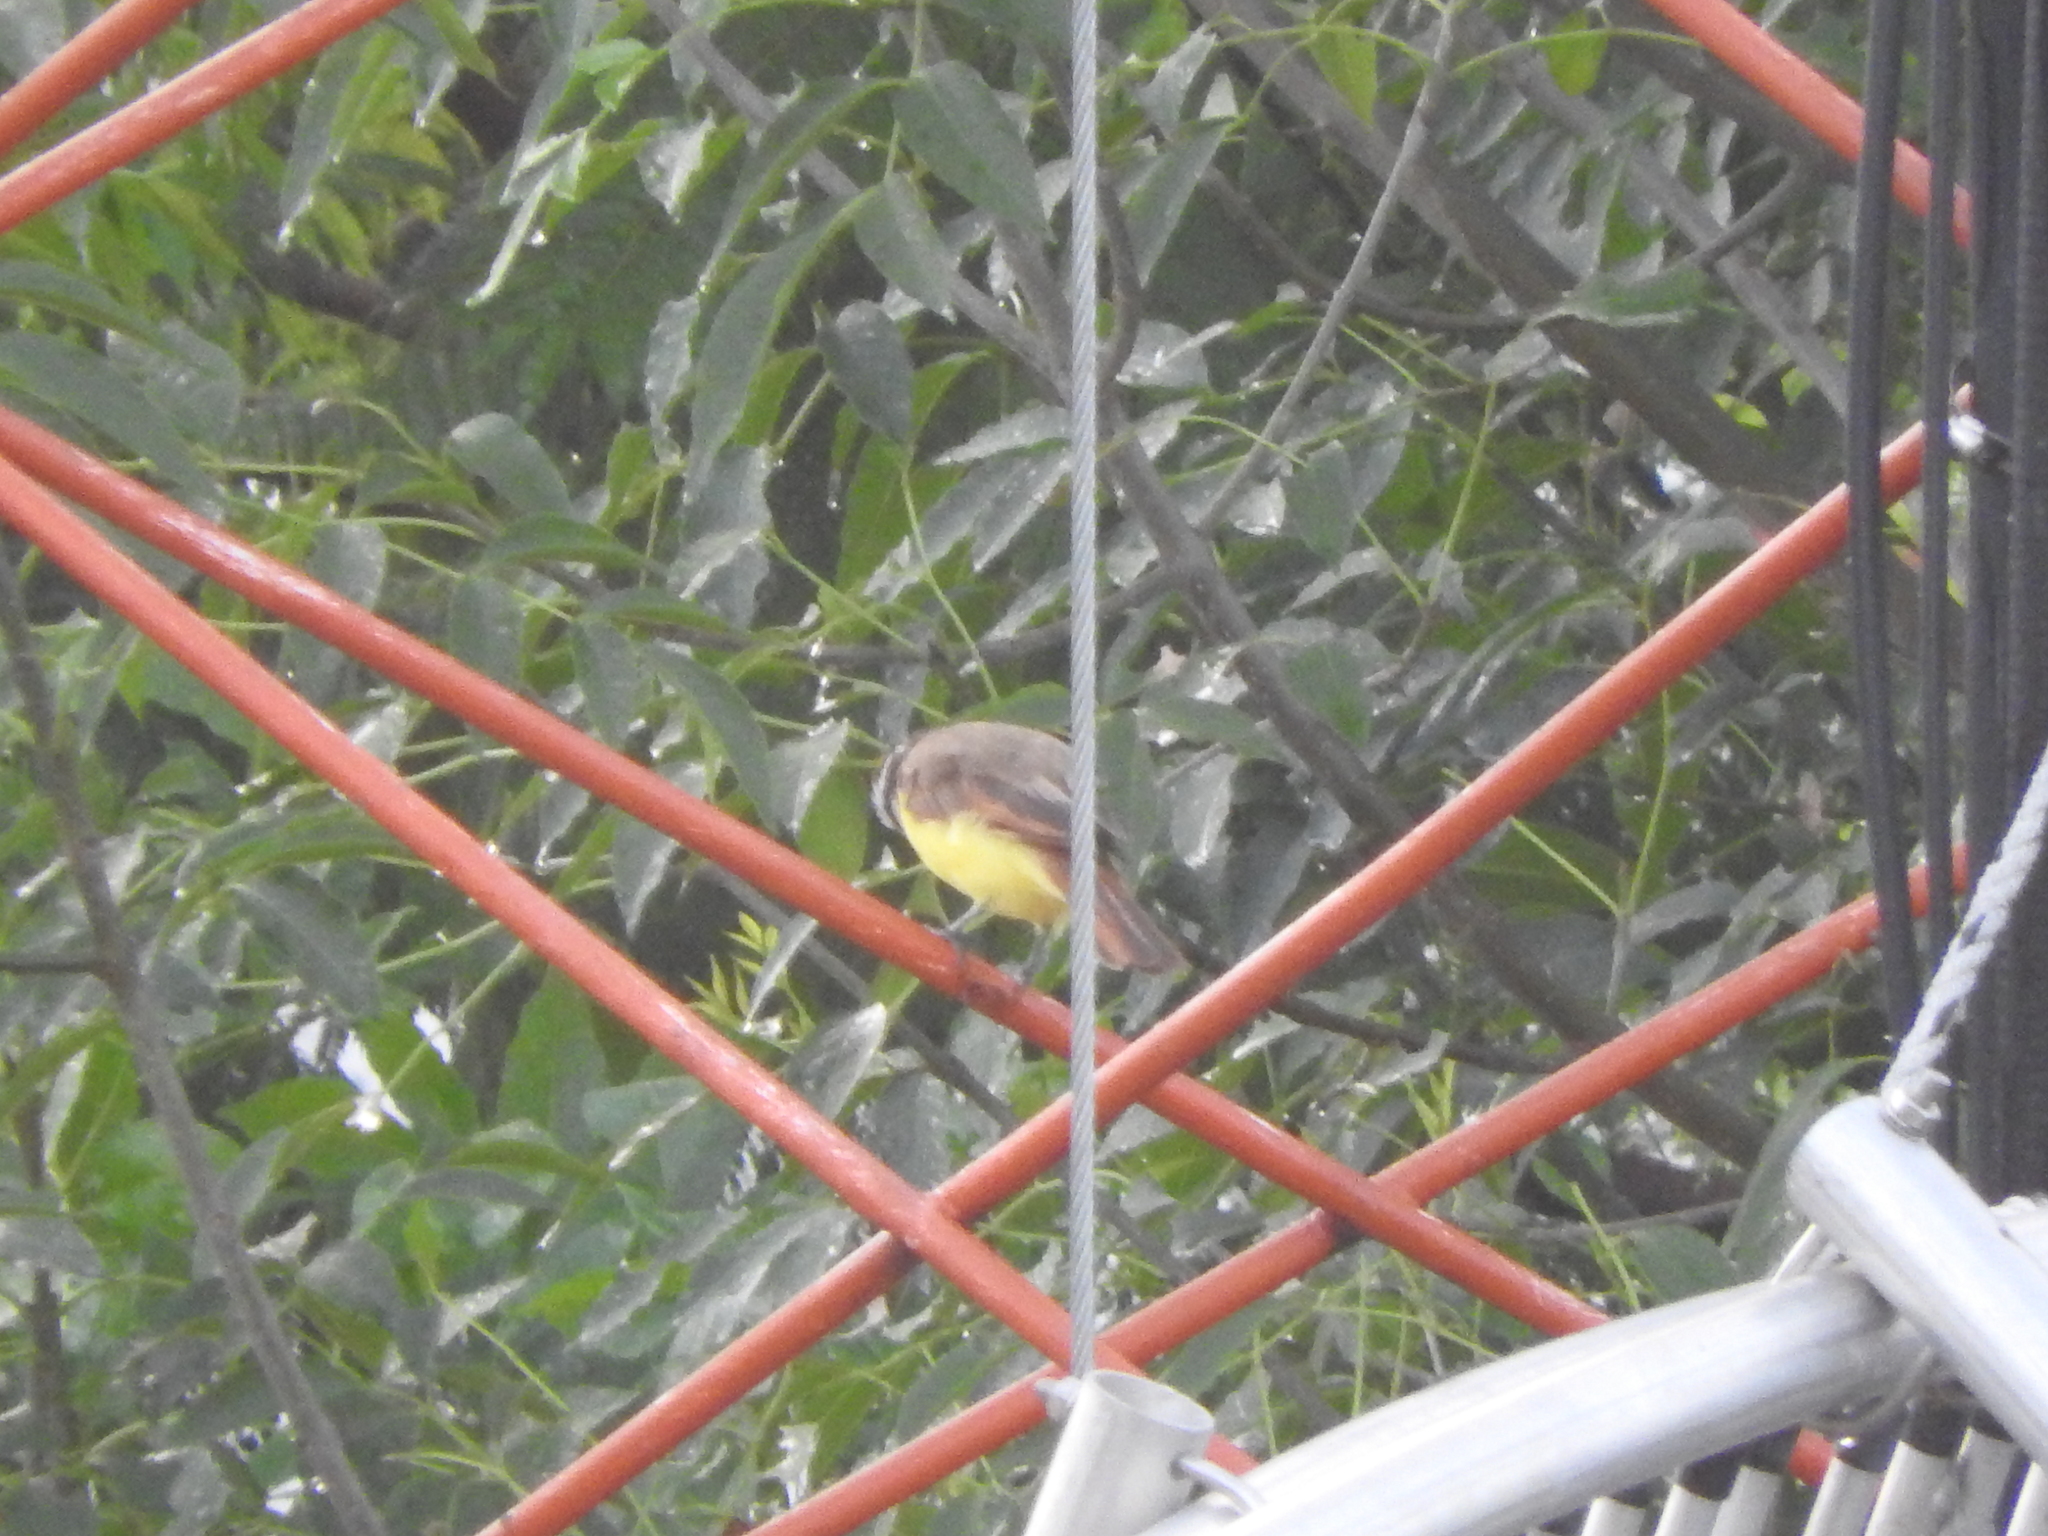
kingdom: Animalia
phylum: Chordata
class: Aves
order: Passeriformes
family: Tyrannidae
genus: Pitangus
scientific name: Pitangus sulphuratus
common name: Great kiskadee
